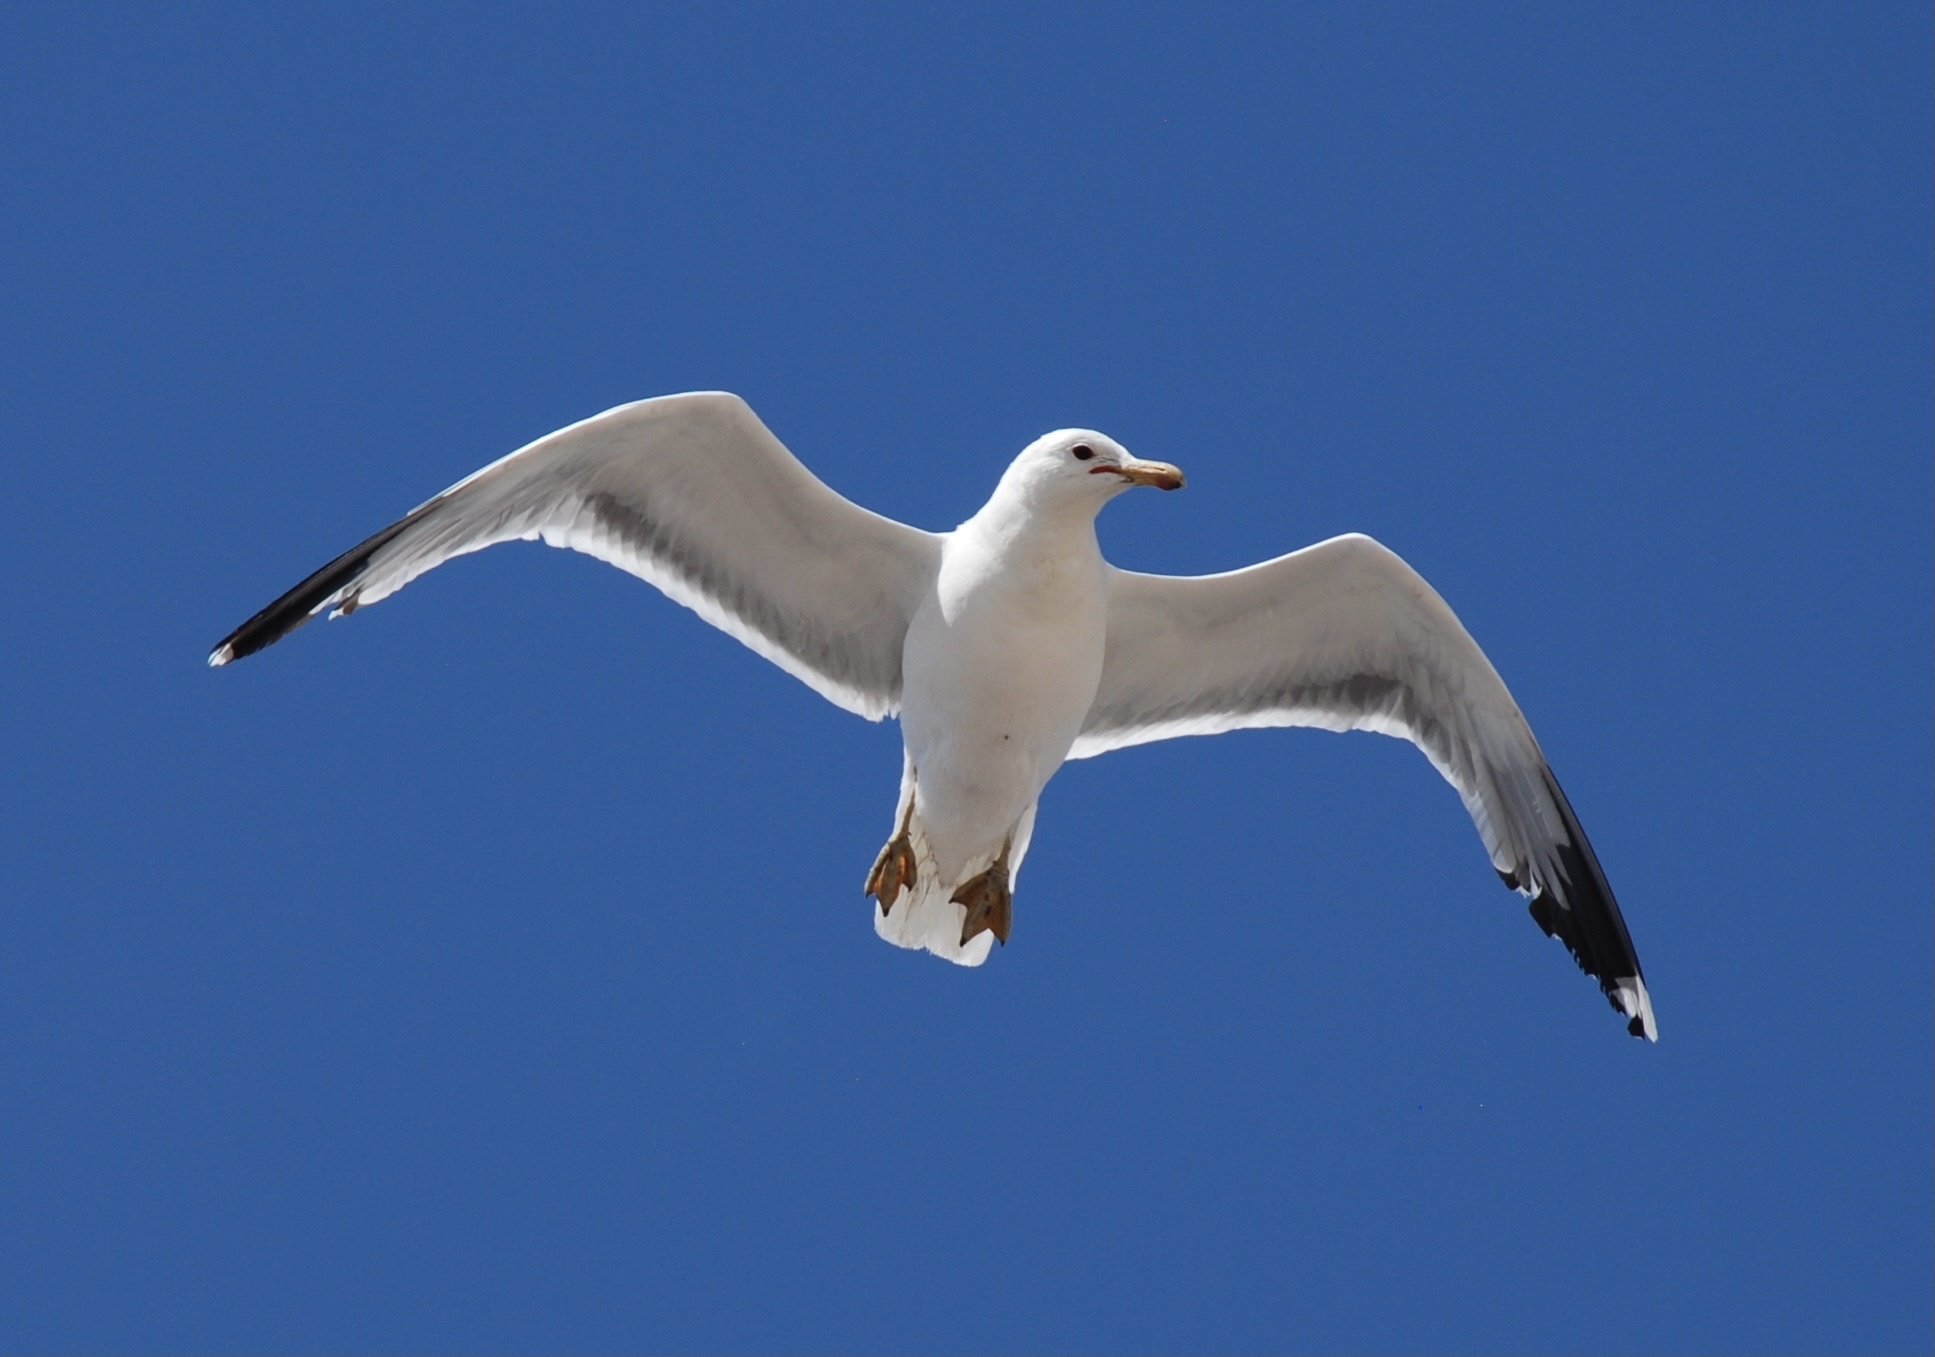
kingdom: Animalia
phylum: Chordata
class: Aves
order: Charadriiformes
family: Laridae
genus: Larus
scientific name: Larus californicus
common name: California gull
